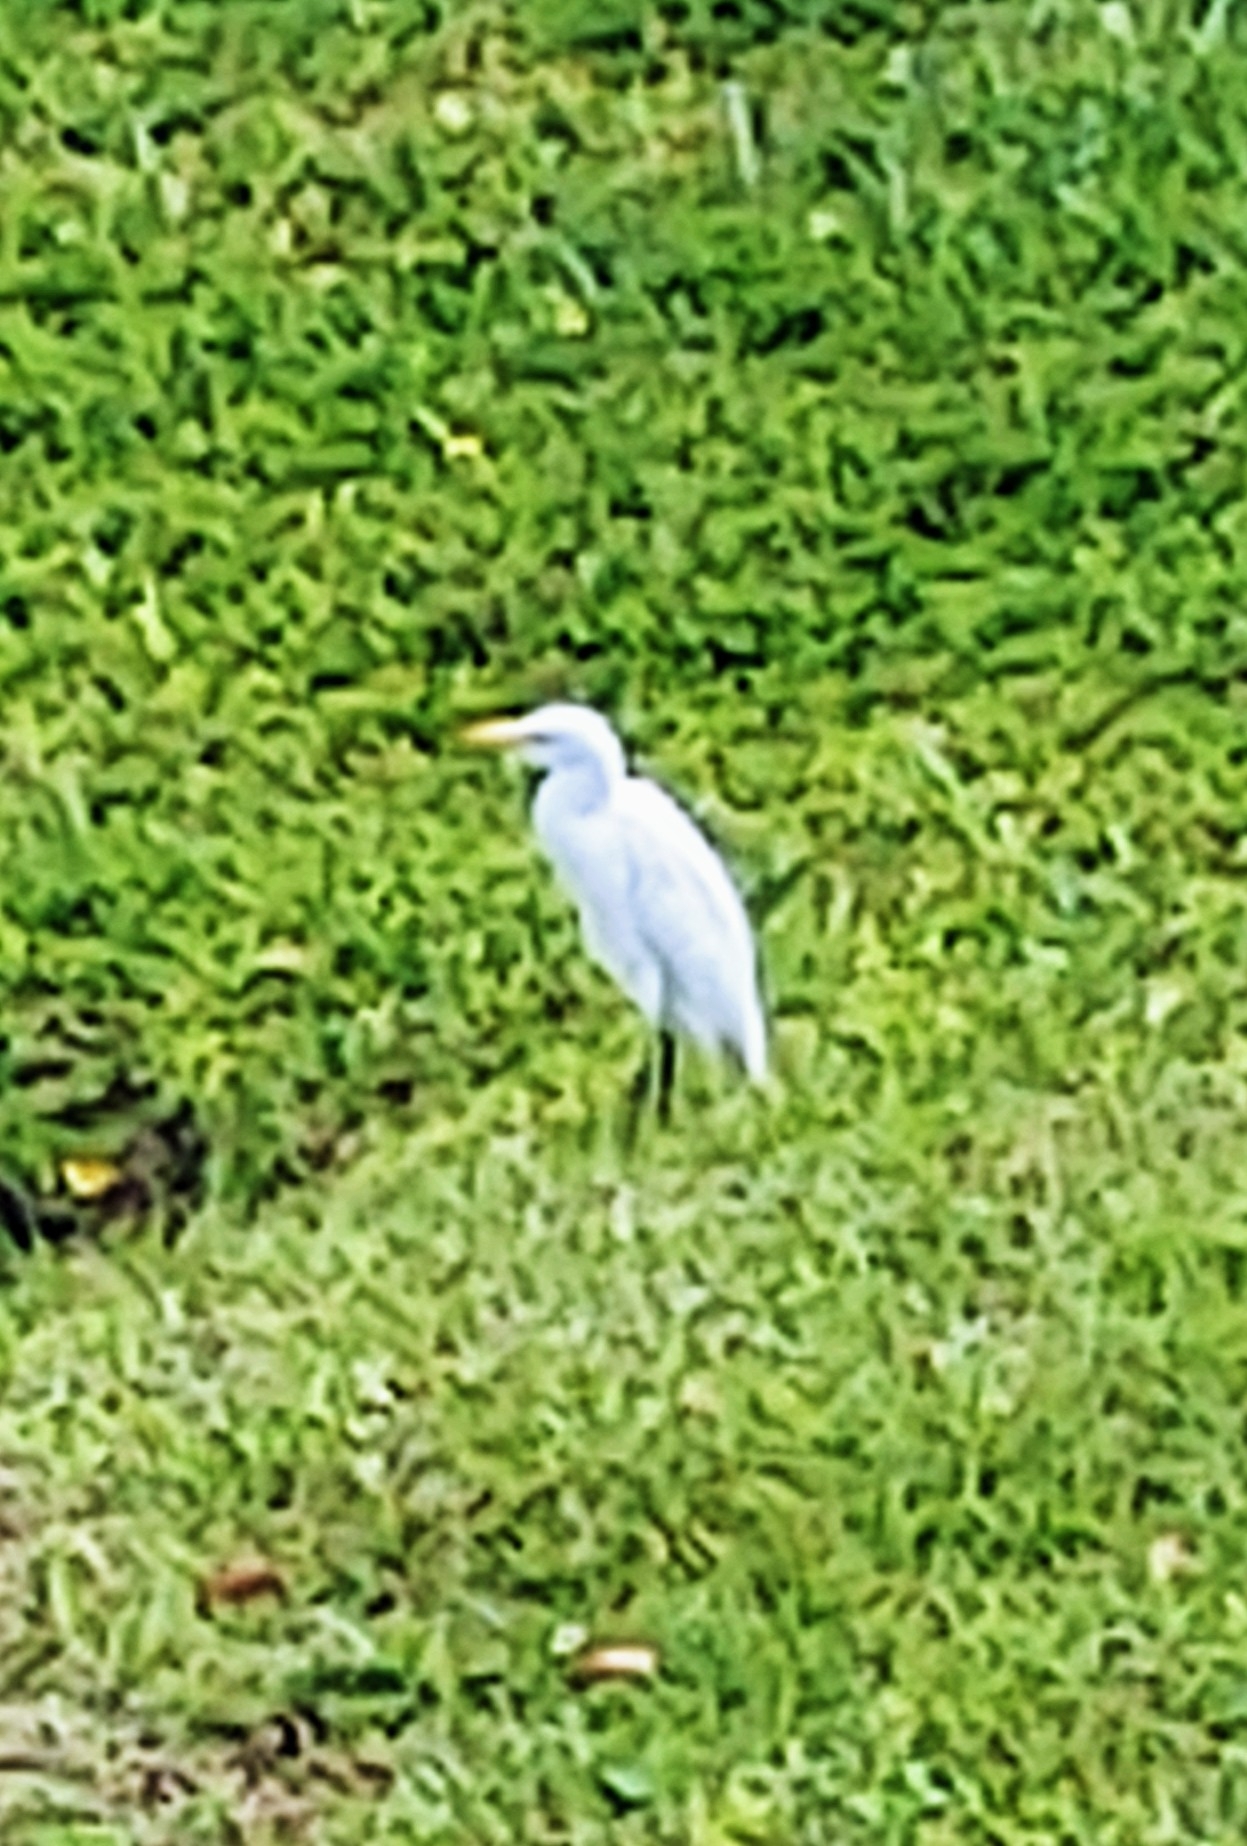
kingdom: Animalia
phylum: Chordata
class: Aves
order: Pelecaniformes
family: Ardeidae
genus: Bubulcus
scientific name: Bubulcus ibis
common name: Cattle egret
